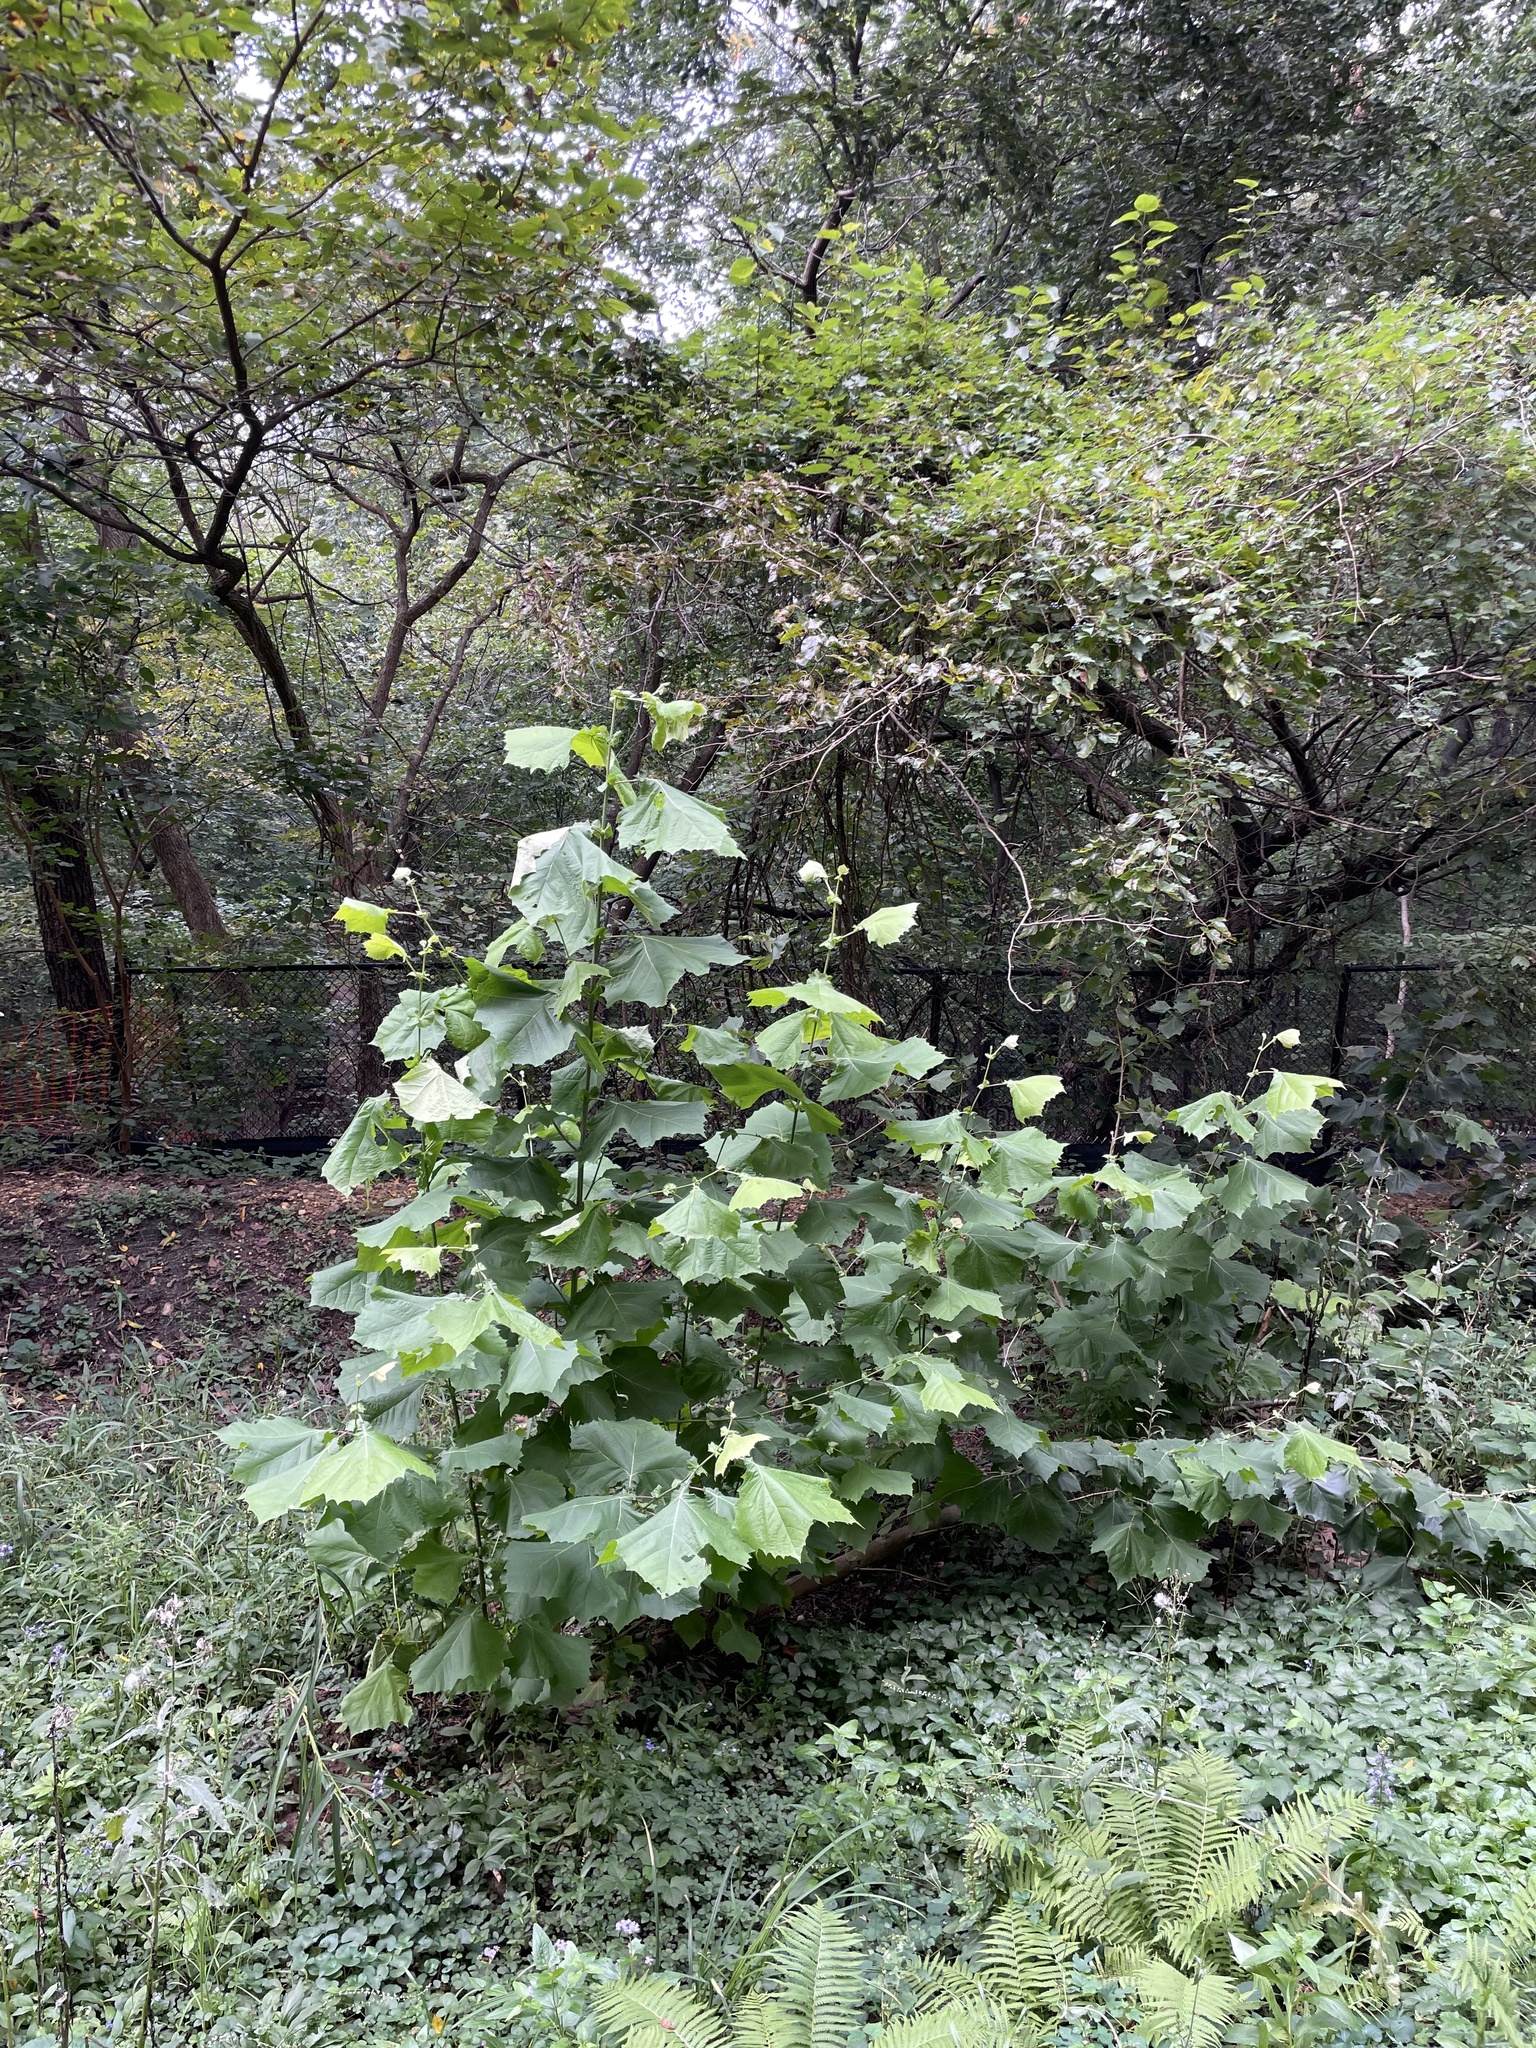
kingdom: Plantae
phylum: Tracheophyta
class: Magnoliopsida
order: Proteales
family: Platanaceae
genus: Platanus
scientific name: Platanus occidentalis
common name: American sycamore
